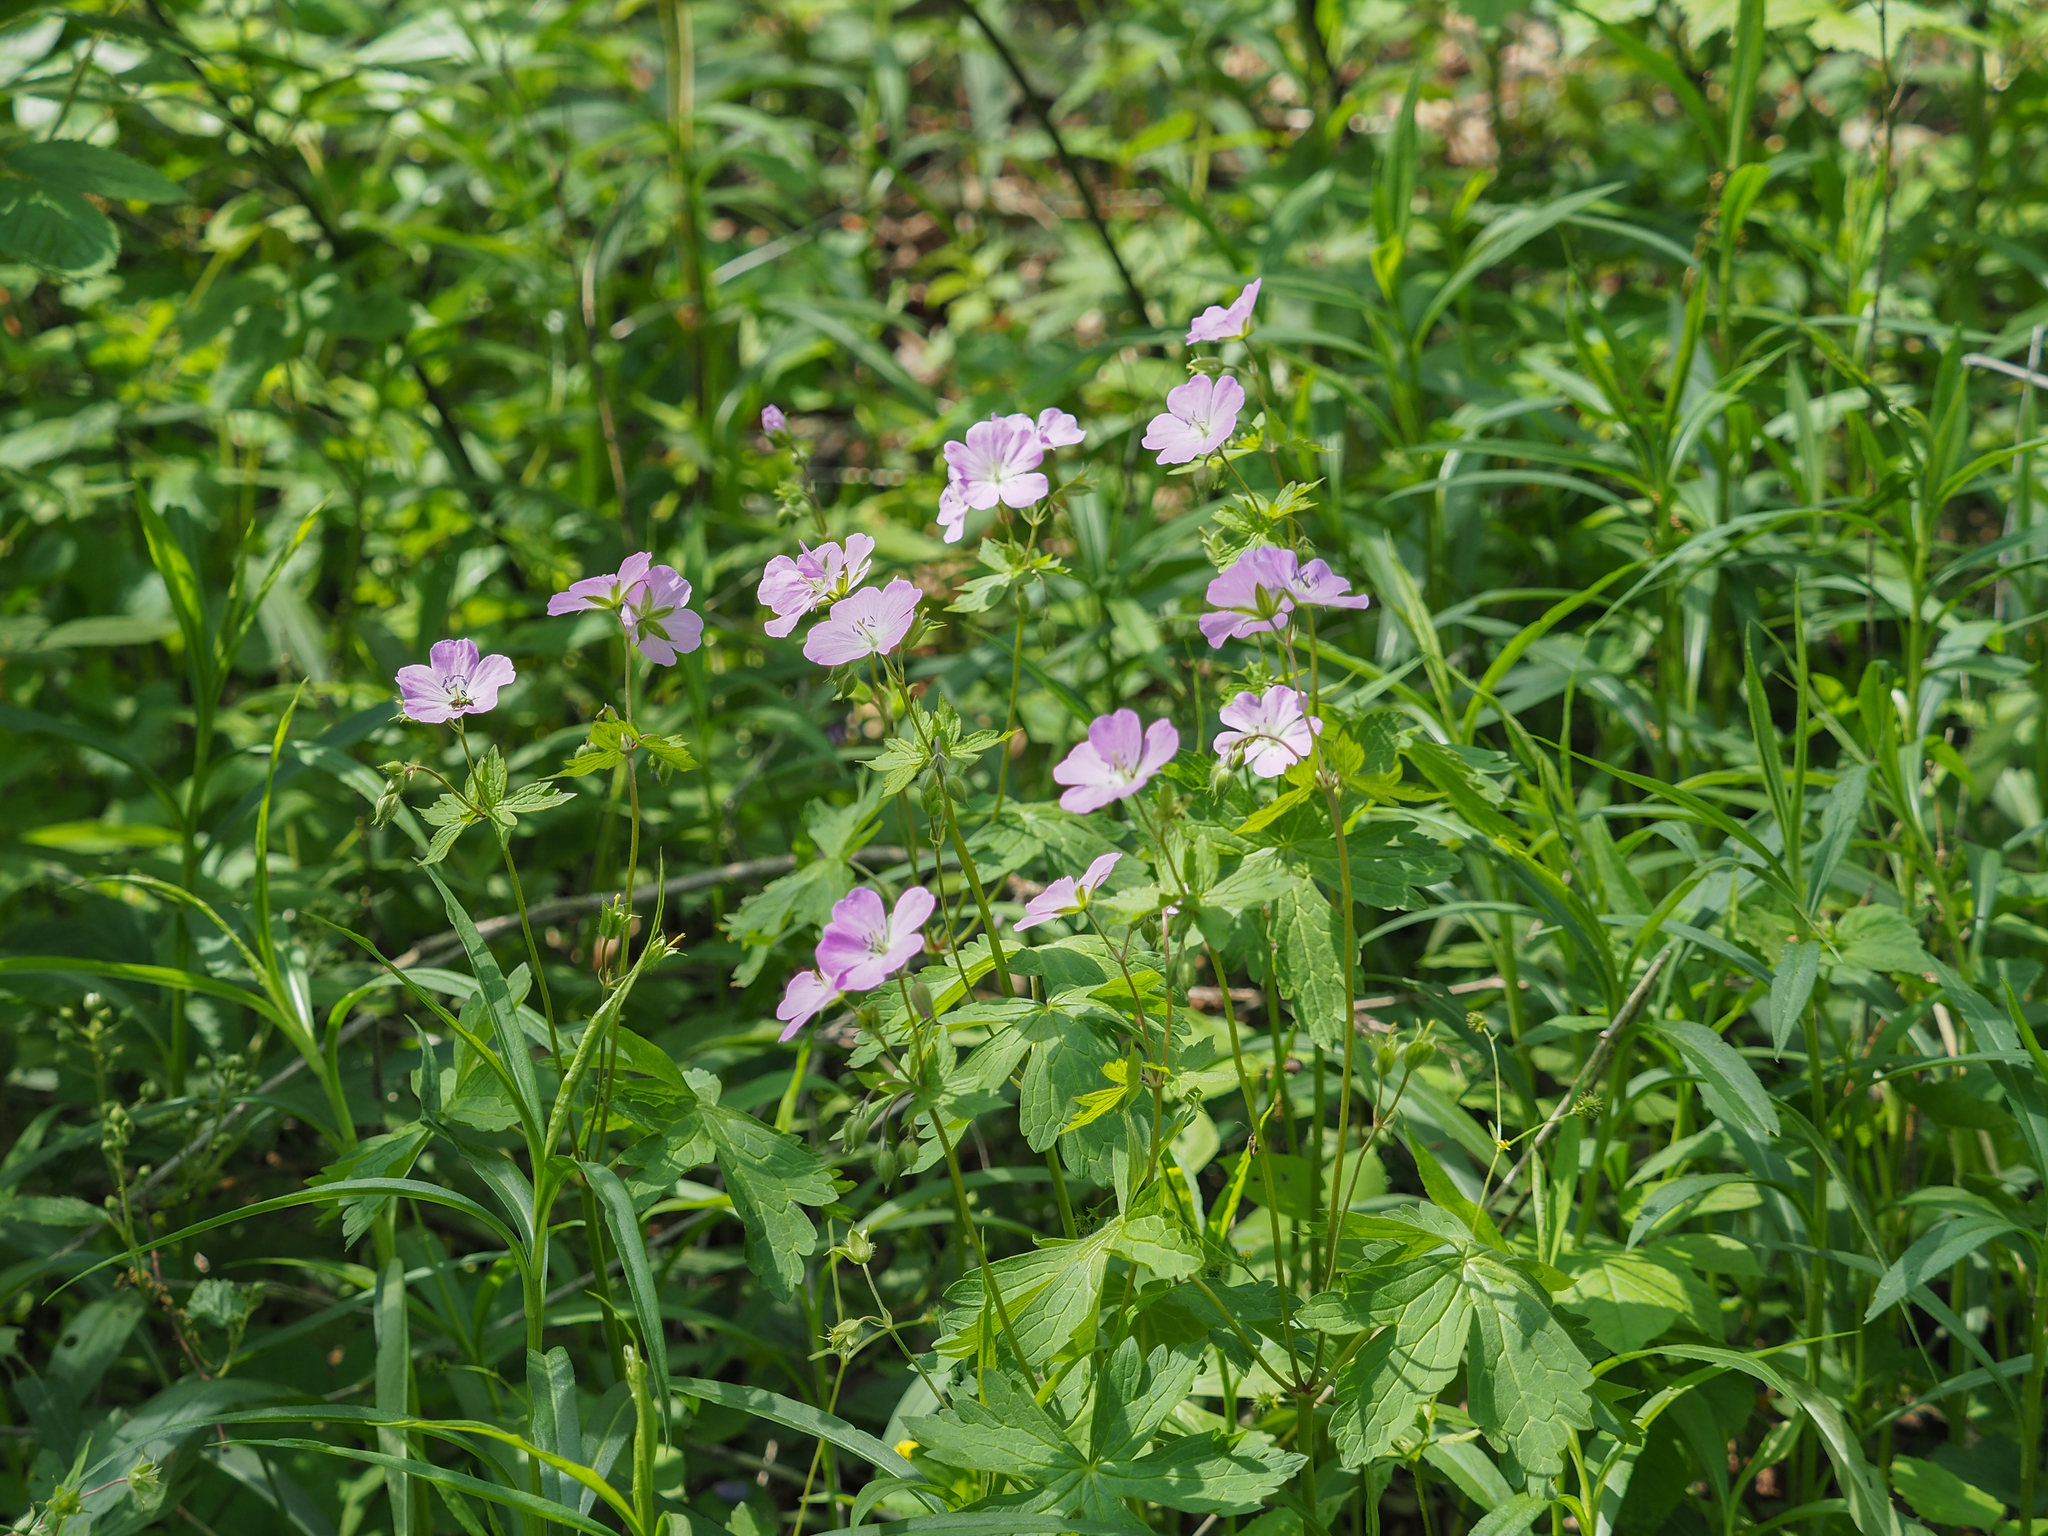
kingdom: Plantae
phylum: Tracheophyta
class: Magnoliopsida
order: Geraniales
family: Geraniaceae
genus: Geranium
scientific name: Geranium maculatum
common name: Spotted geranium
